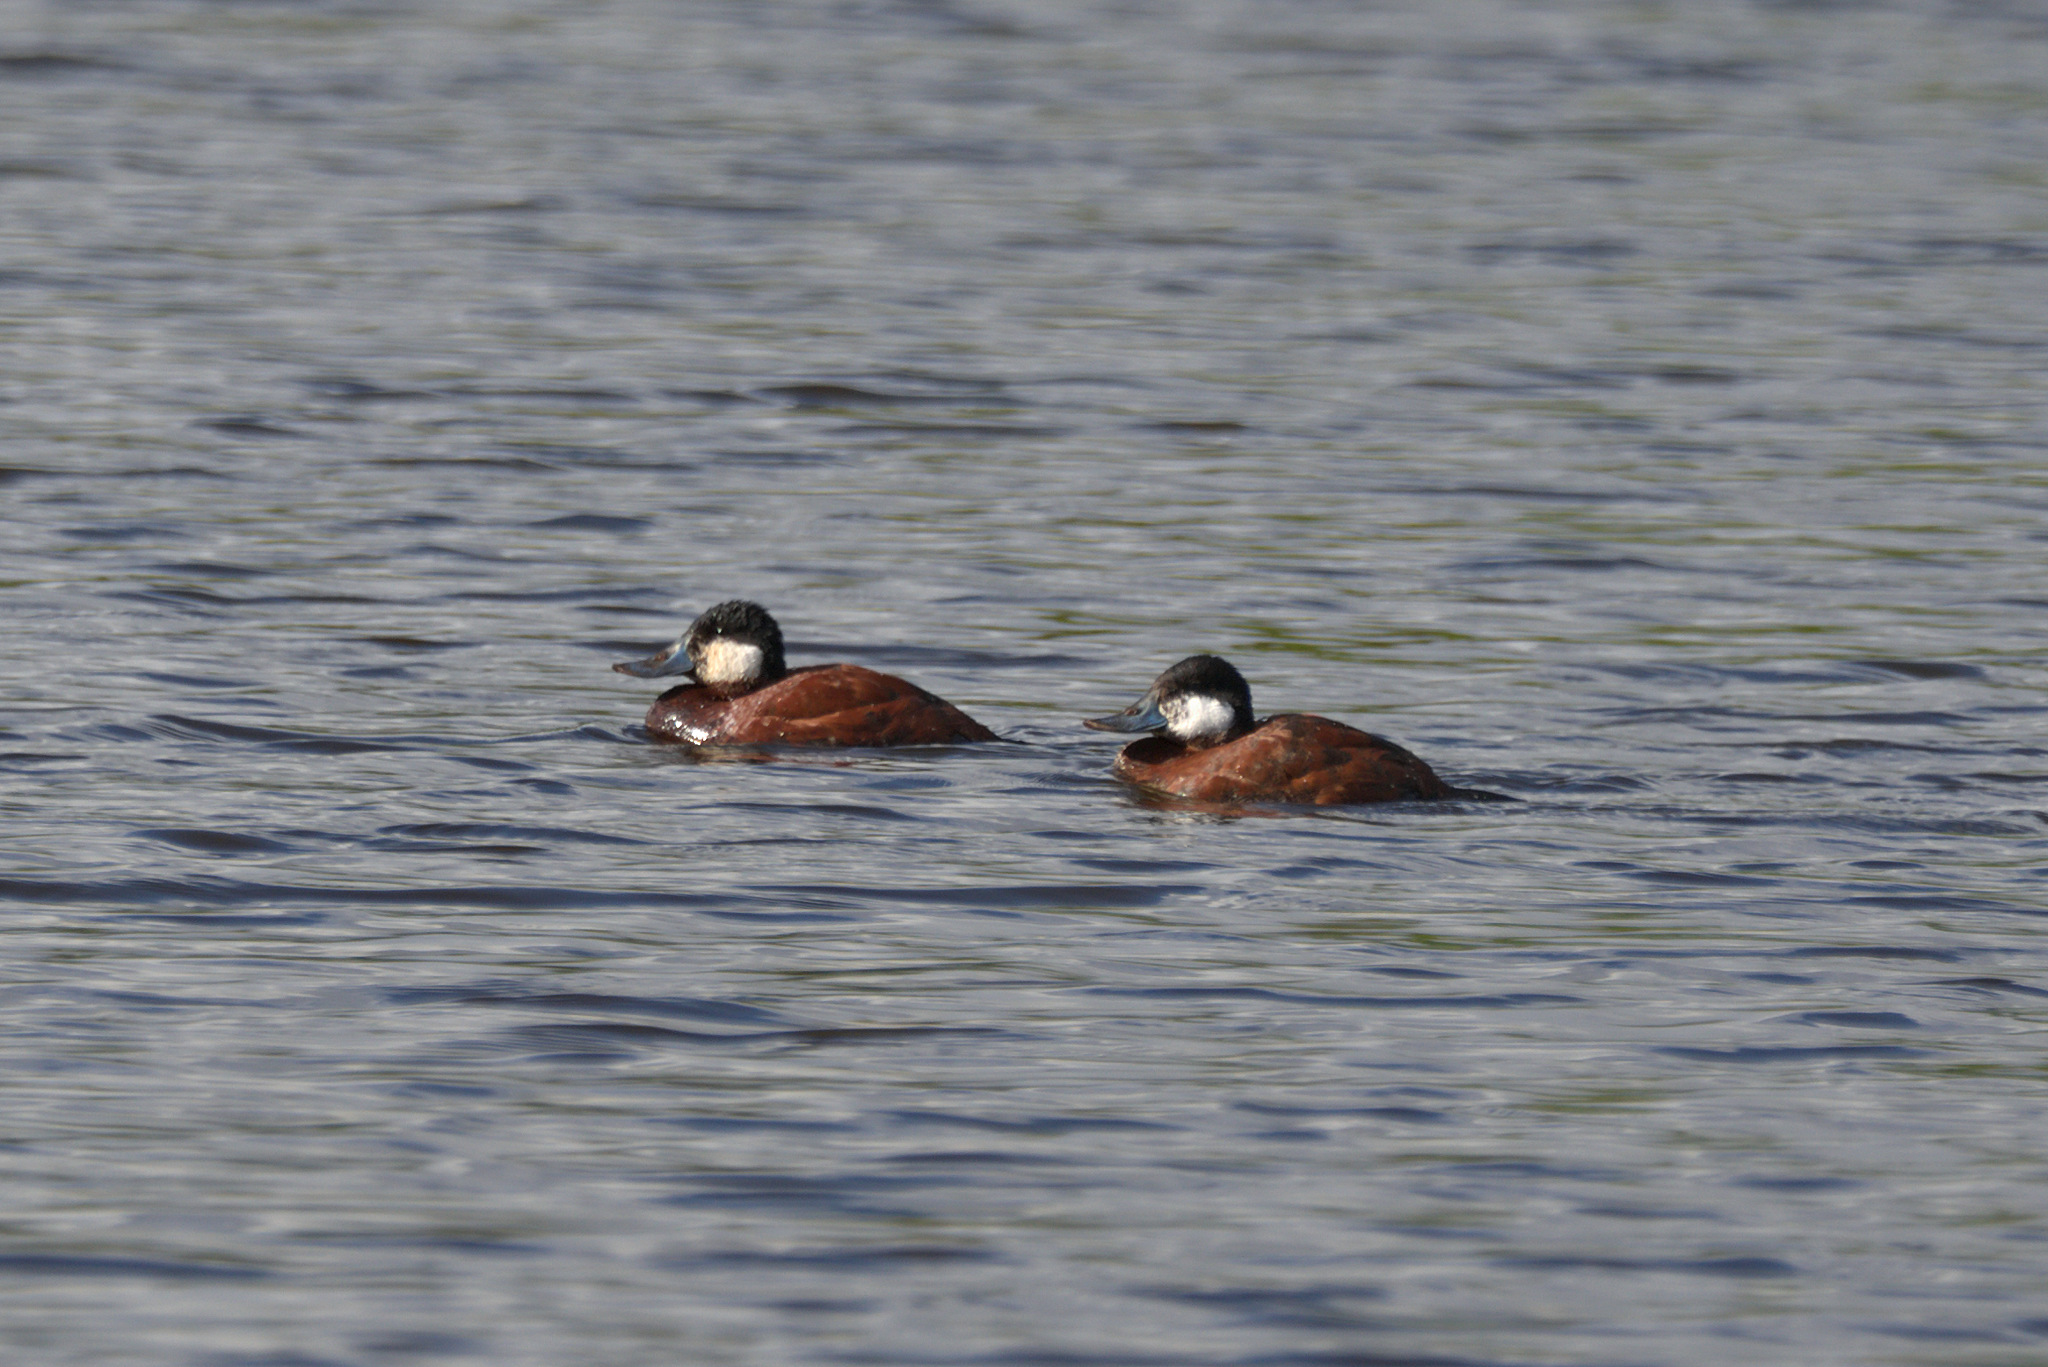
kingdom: Animalia
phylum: Chordata
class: Aves
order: Anseriformes
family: Anatidae
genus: Oxyura
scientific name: Oxyura jamaicensis
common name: Ruddy duck
